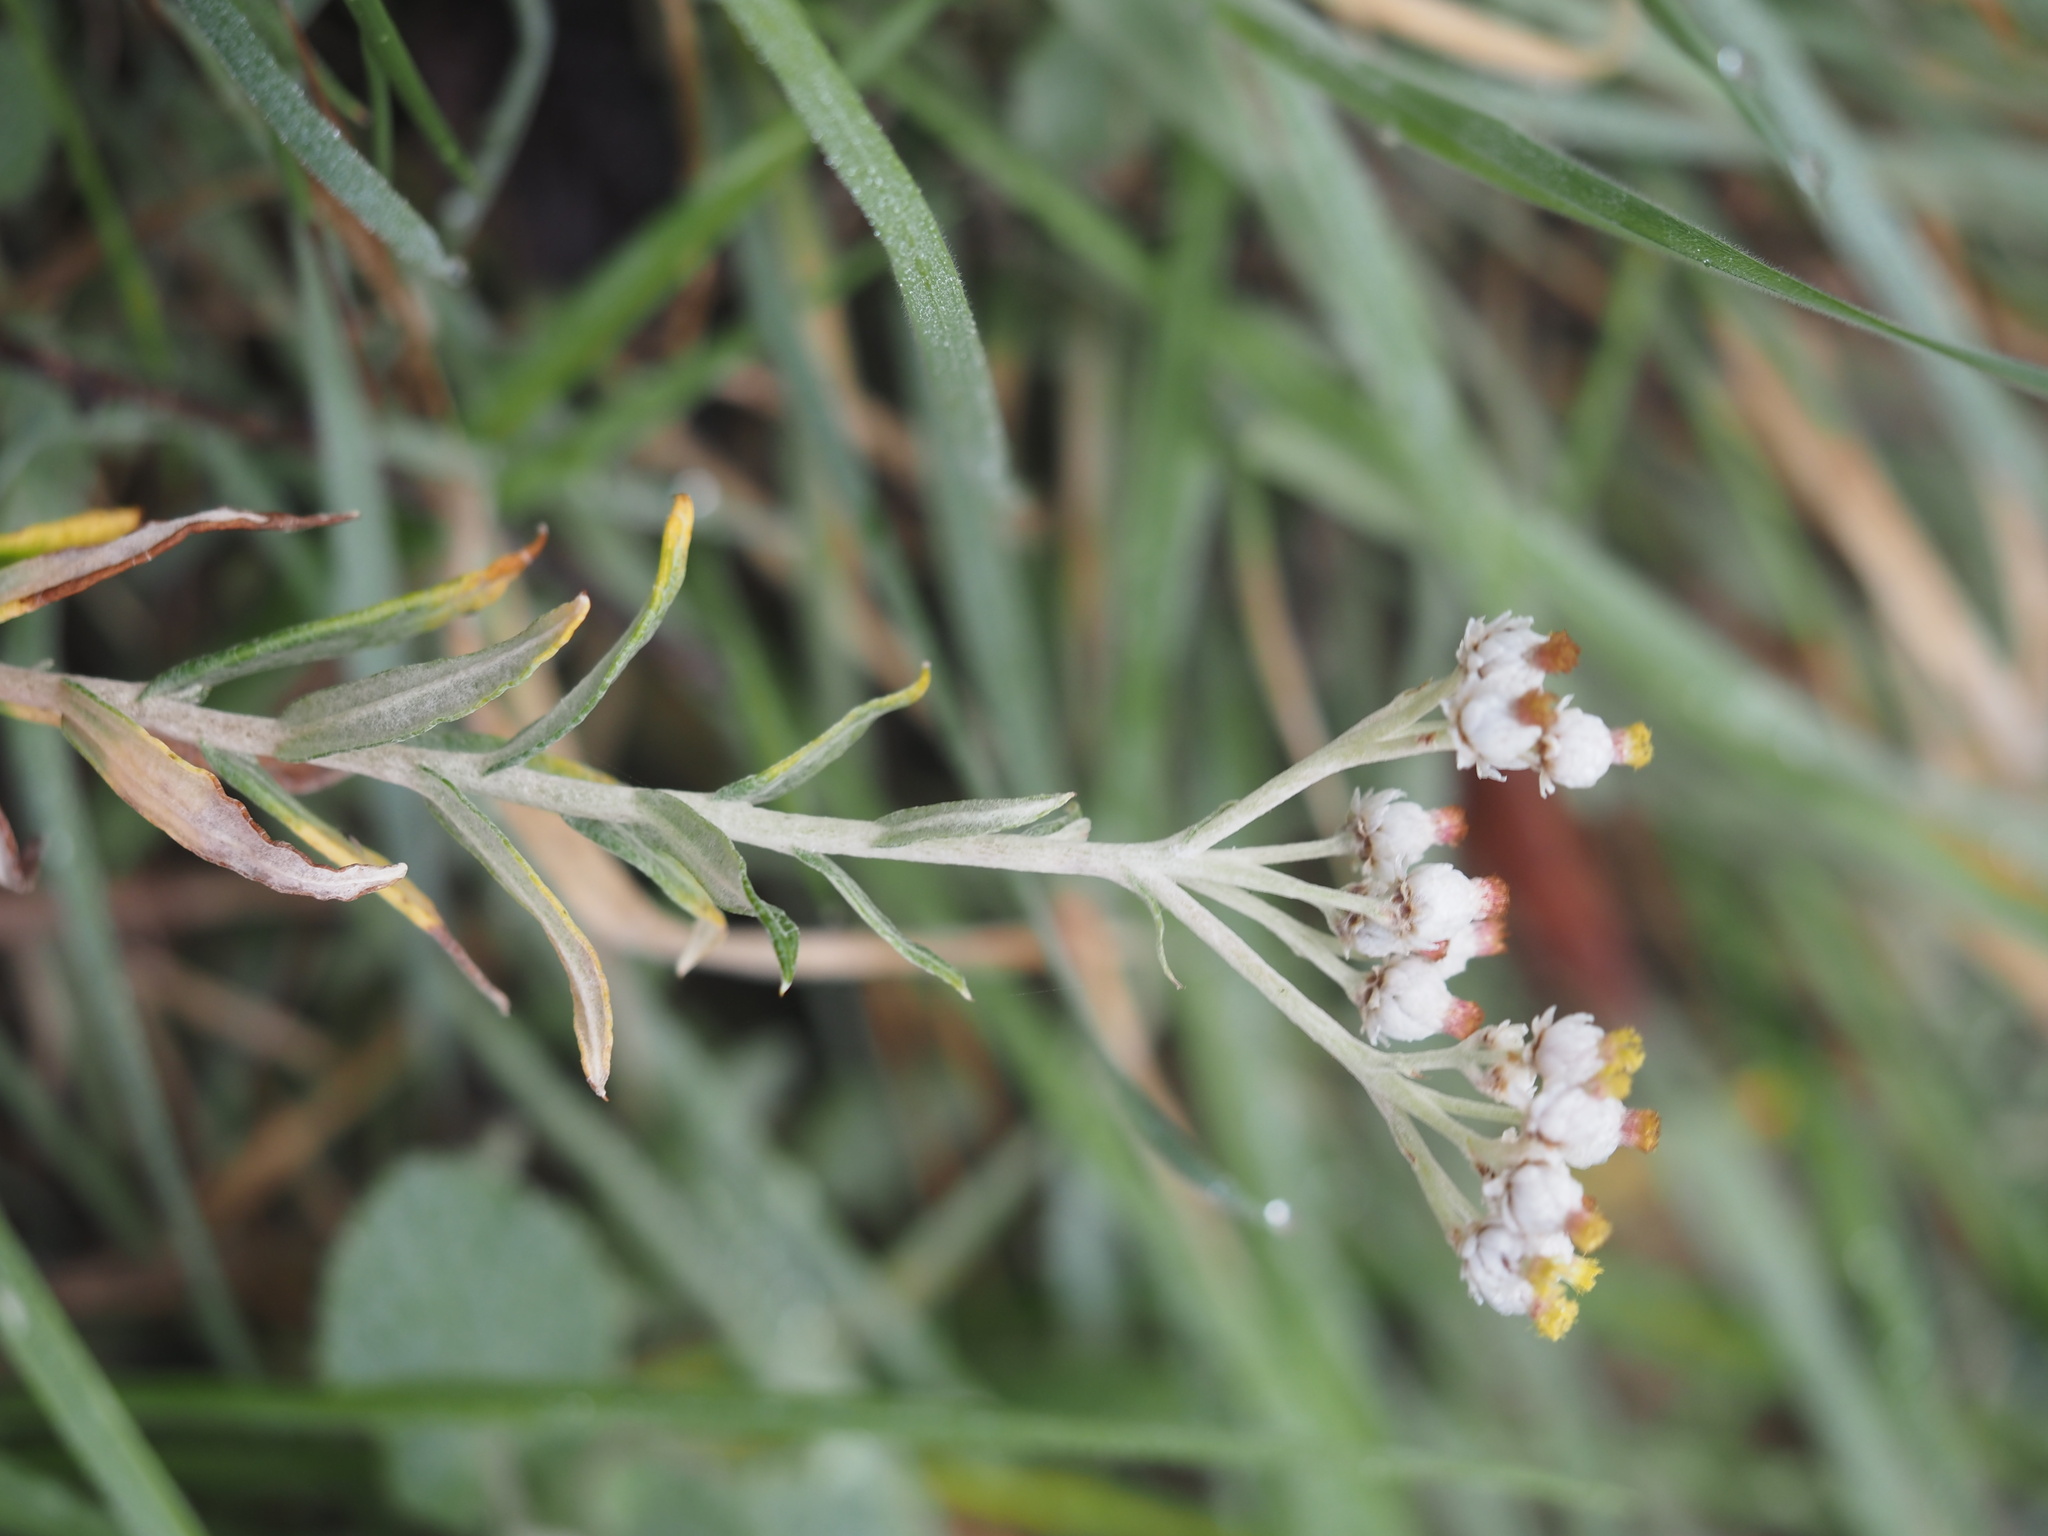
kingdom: Plantae
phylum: Tracheophyta
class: Magnoliopsida
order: Asterales
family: Asteraceae
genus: Anaphalis
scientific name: Anaphalis margaritacea
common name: Pearly everlasting
